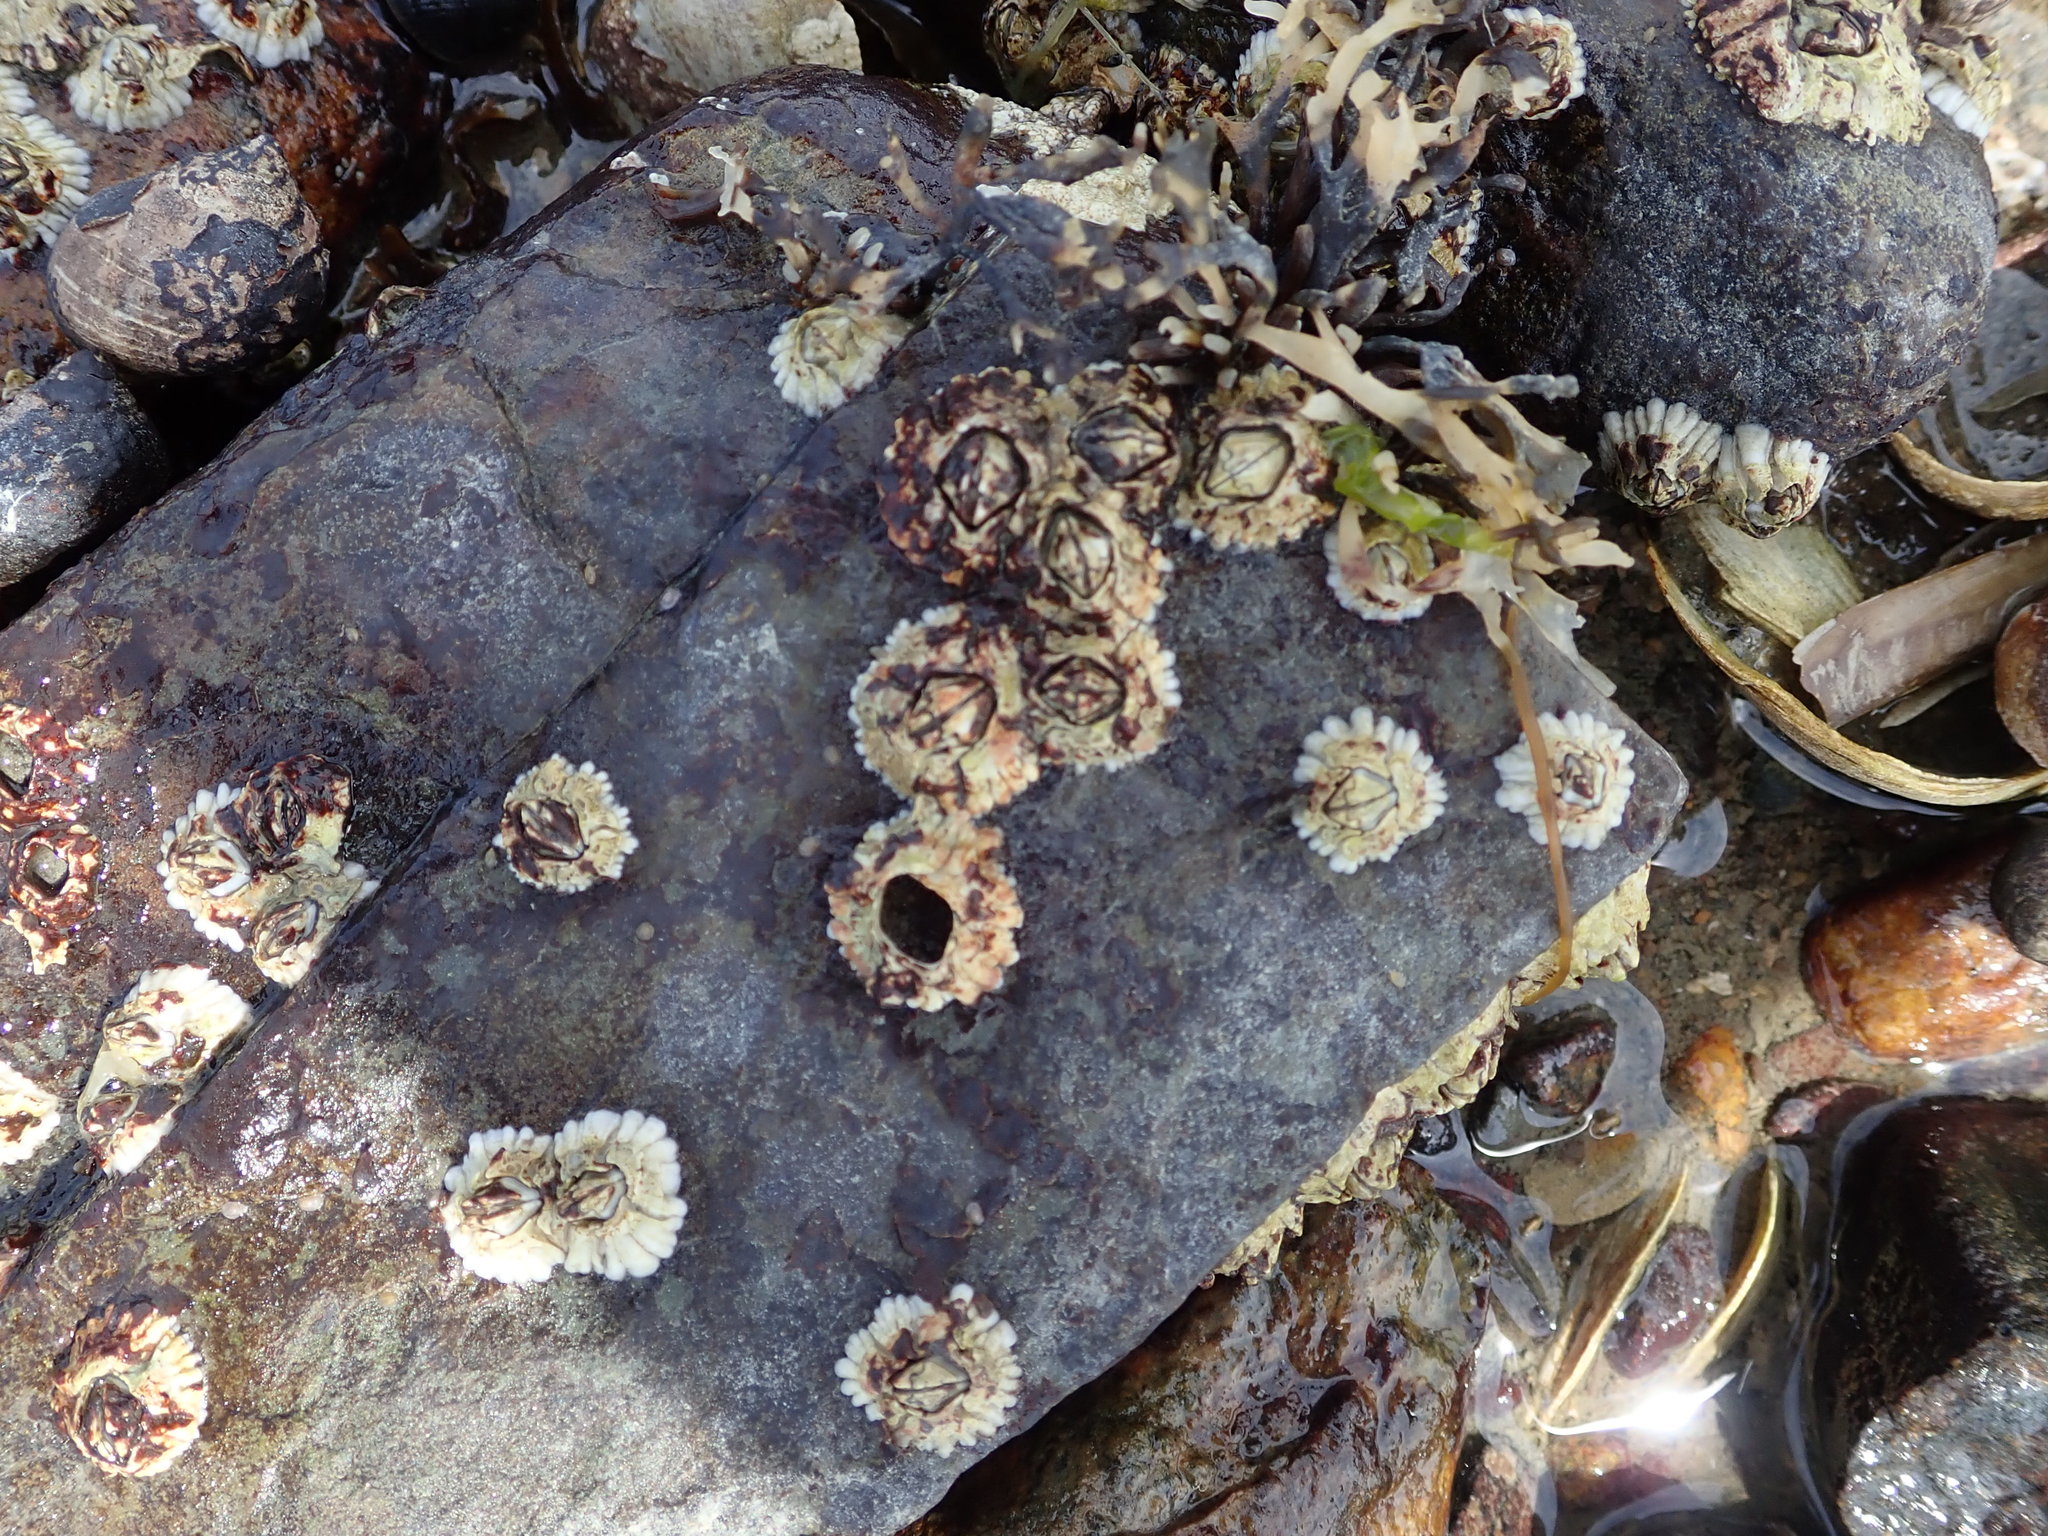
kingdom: Animalia
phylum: Arthropoda
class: Maxillopoda
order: Sessilia
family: Archaeobalanidae
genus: Semibalanus
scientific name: Semibalanus balanoides
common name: Acorn barnacle
